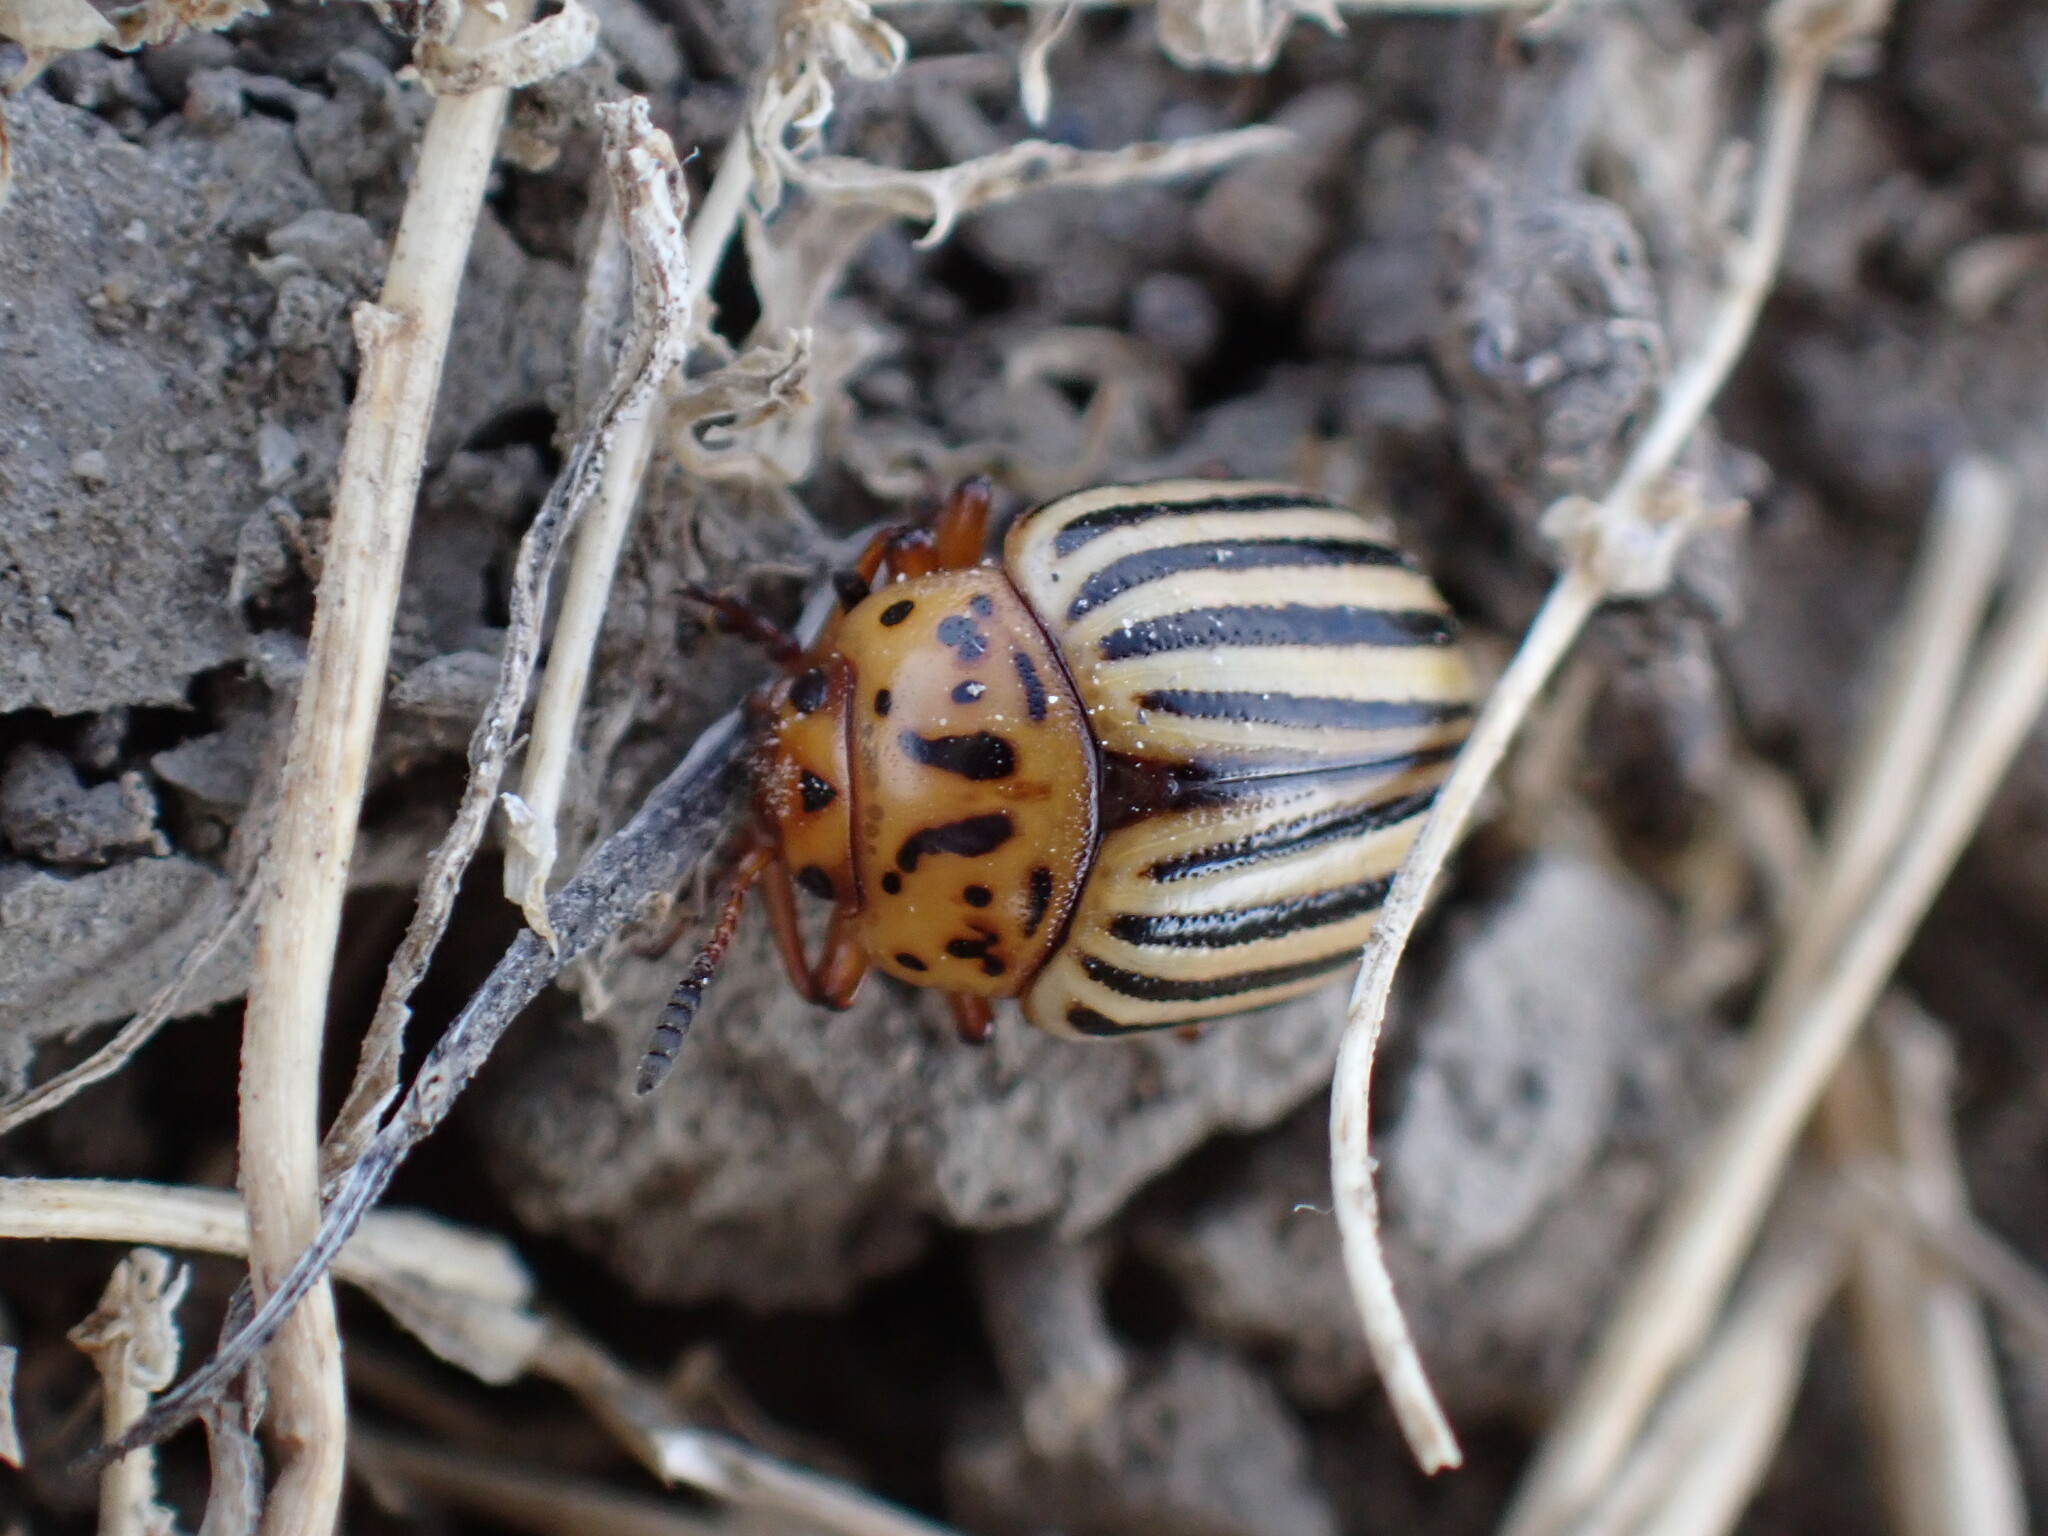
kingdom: Animalia
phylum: Arthropoda
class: Insecta
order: Coleoptera
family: Chrysomelidae
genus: Leptinotarsa
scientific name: Leptinotarsa decemlineata
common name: Colorado potato beetle
